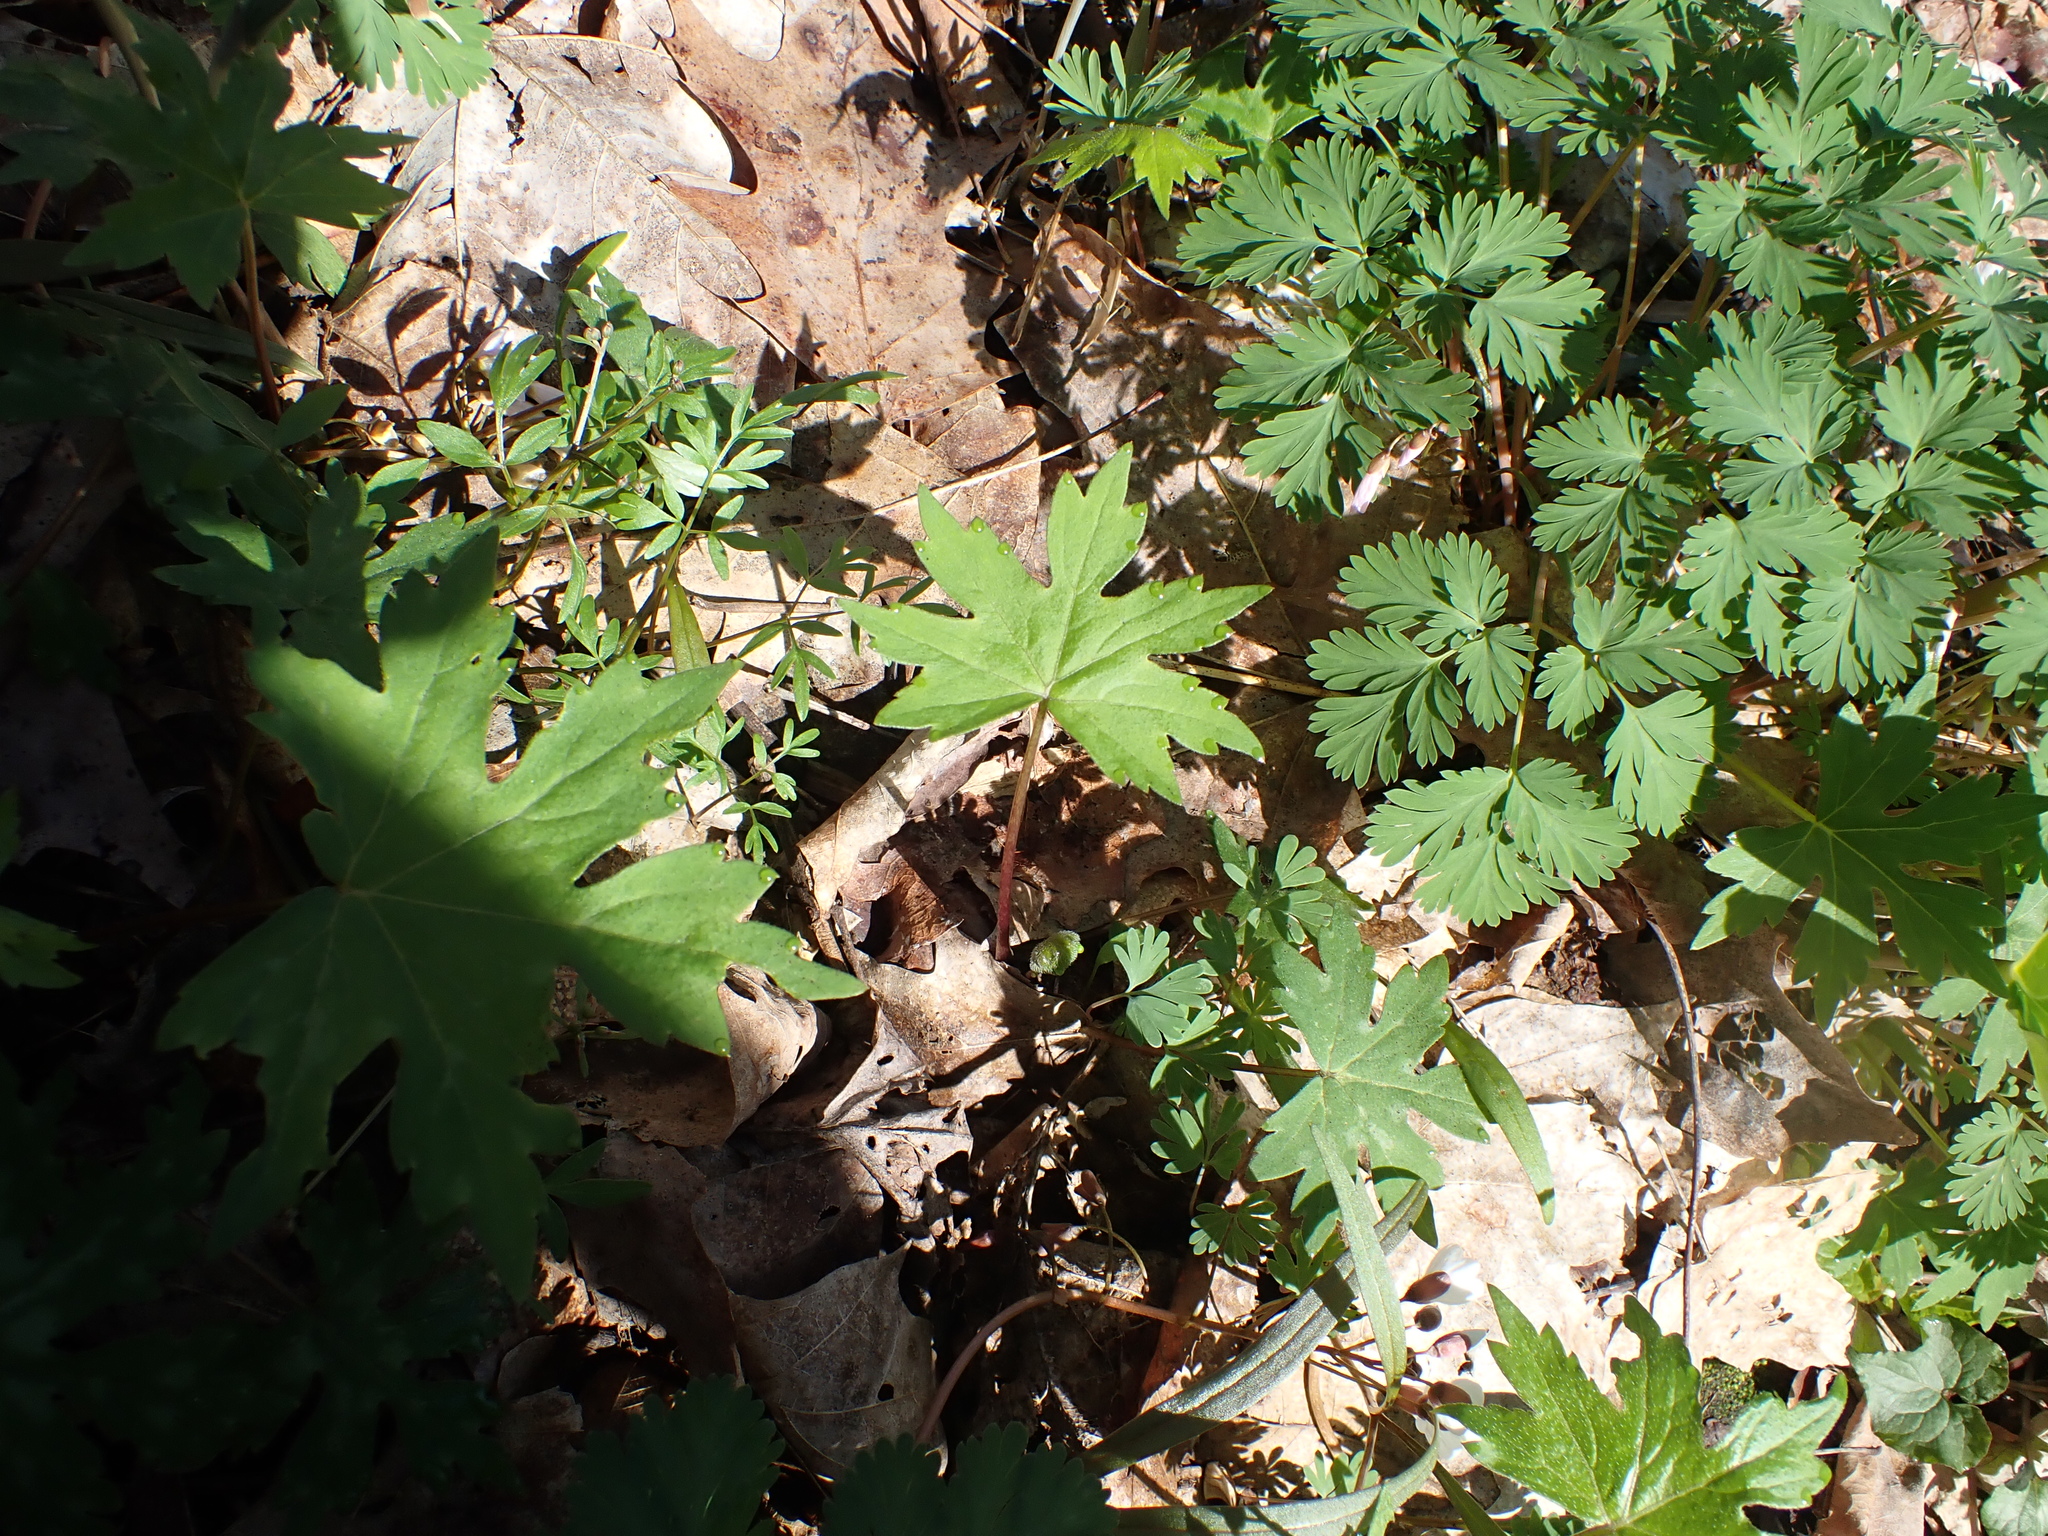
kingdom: Plantae
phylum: Tracheophyta
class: Magnoliopsida
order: Boraginales
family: Hydrophyllaceae
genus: Hydrophyllum
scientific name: Hydrophyllum canadense
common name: Canada waterleaf
